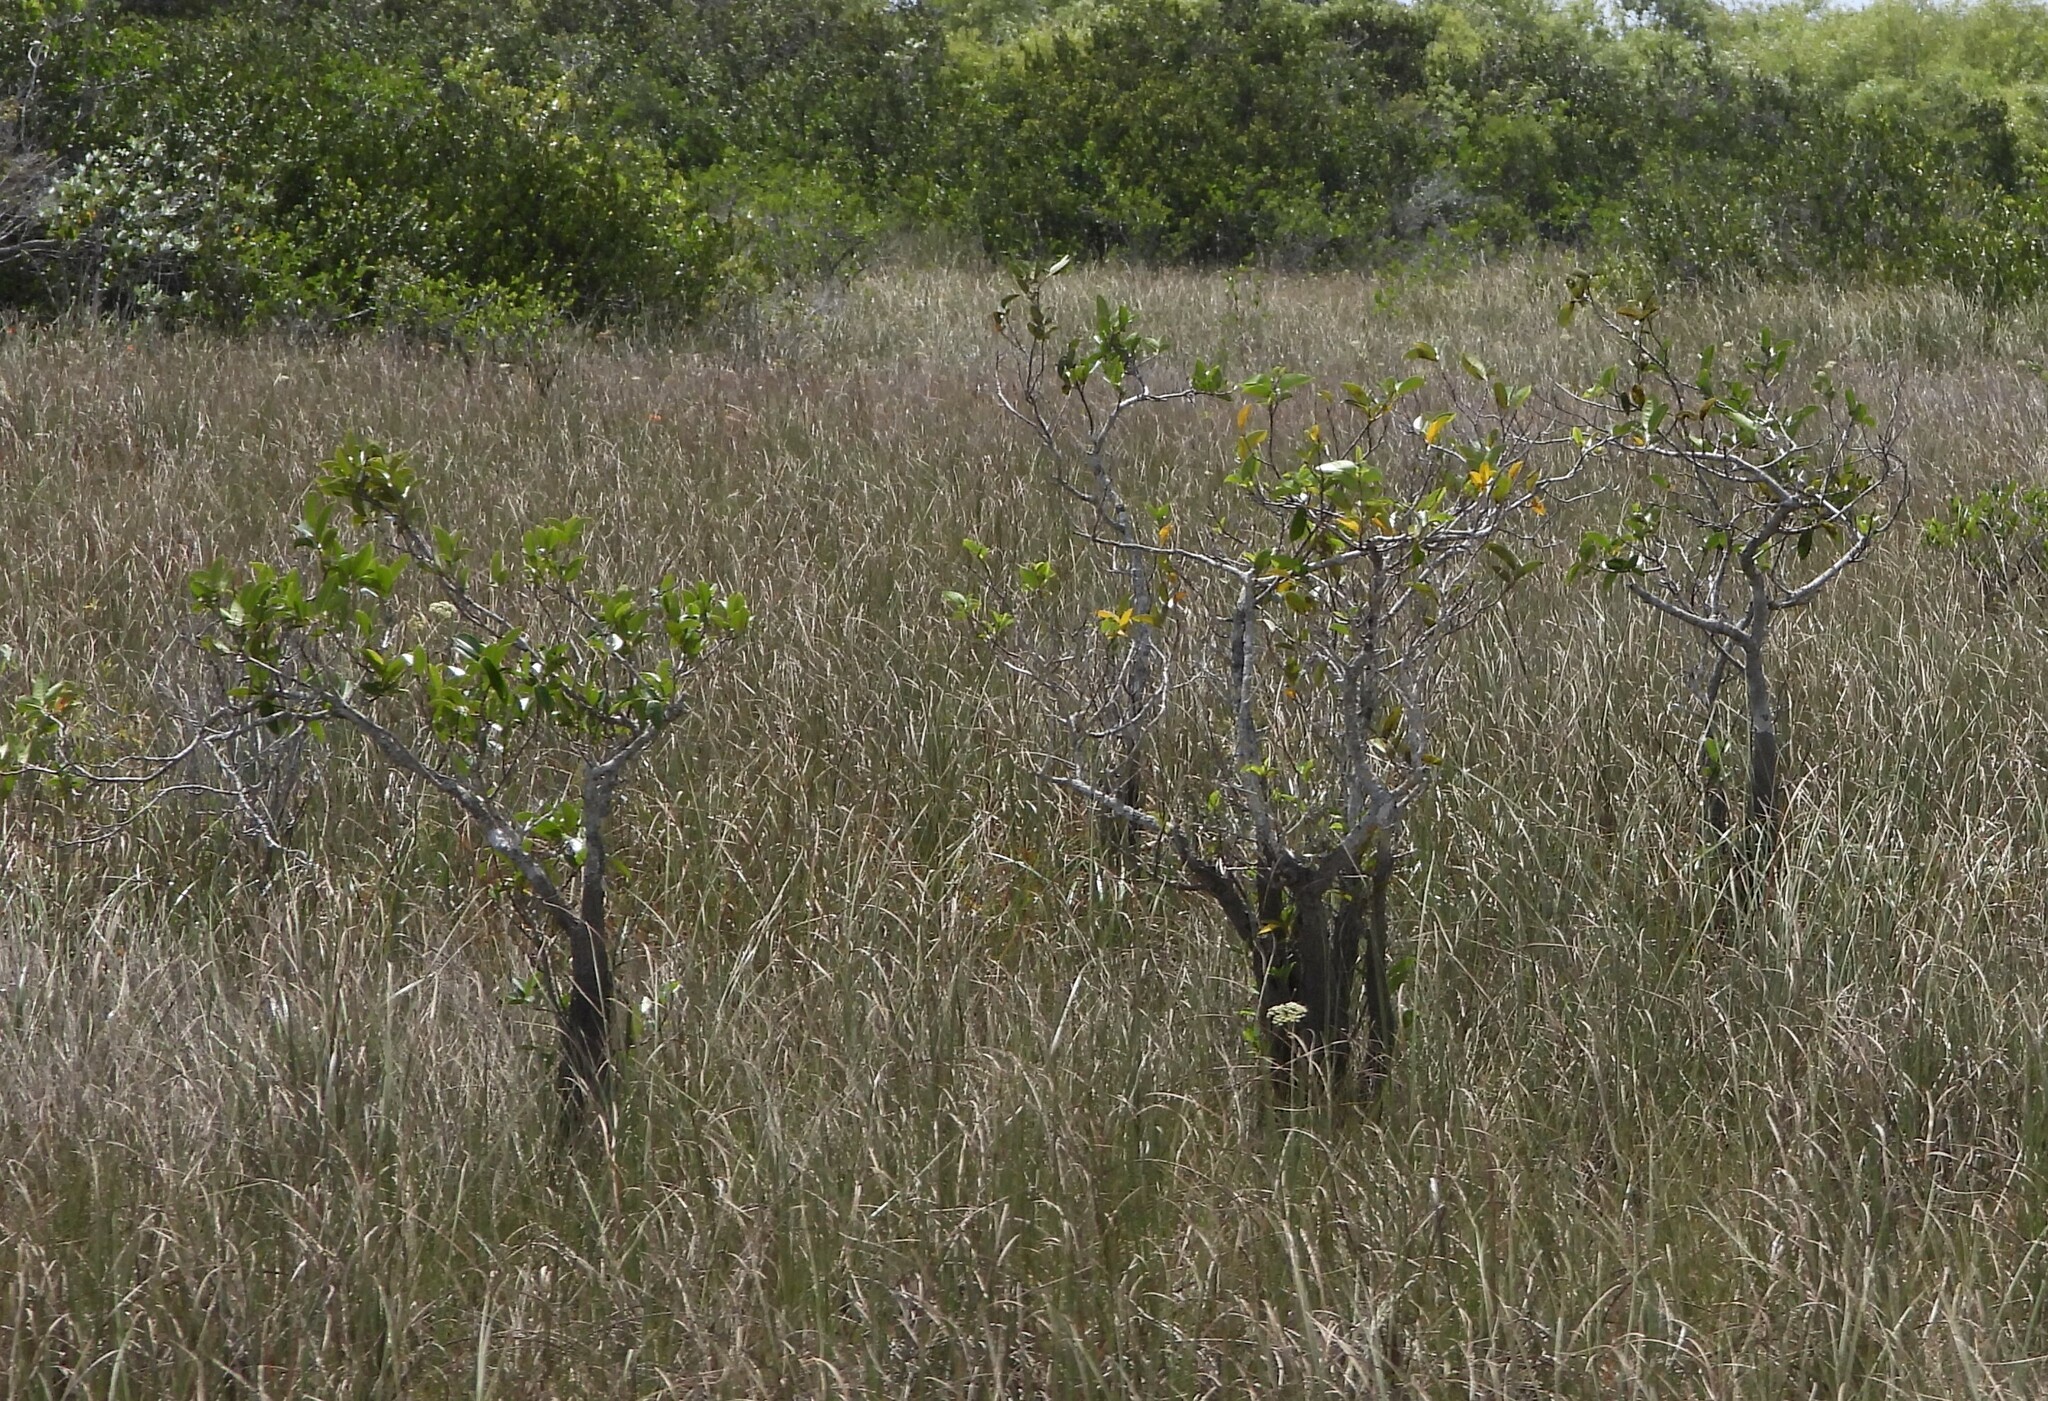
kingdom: Plantae
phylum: Tracheophyta
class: Magnoliopsida
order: Magnoliales
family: Annonaceae
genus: Annona
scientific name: Annona glabra
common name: Monkey apple
